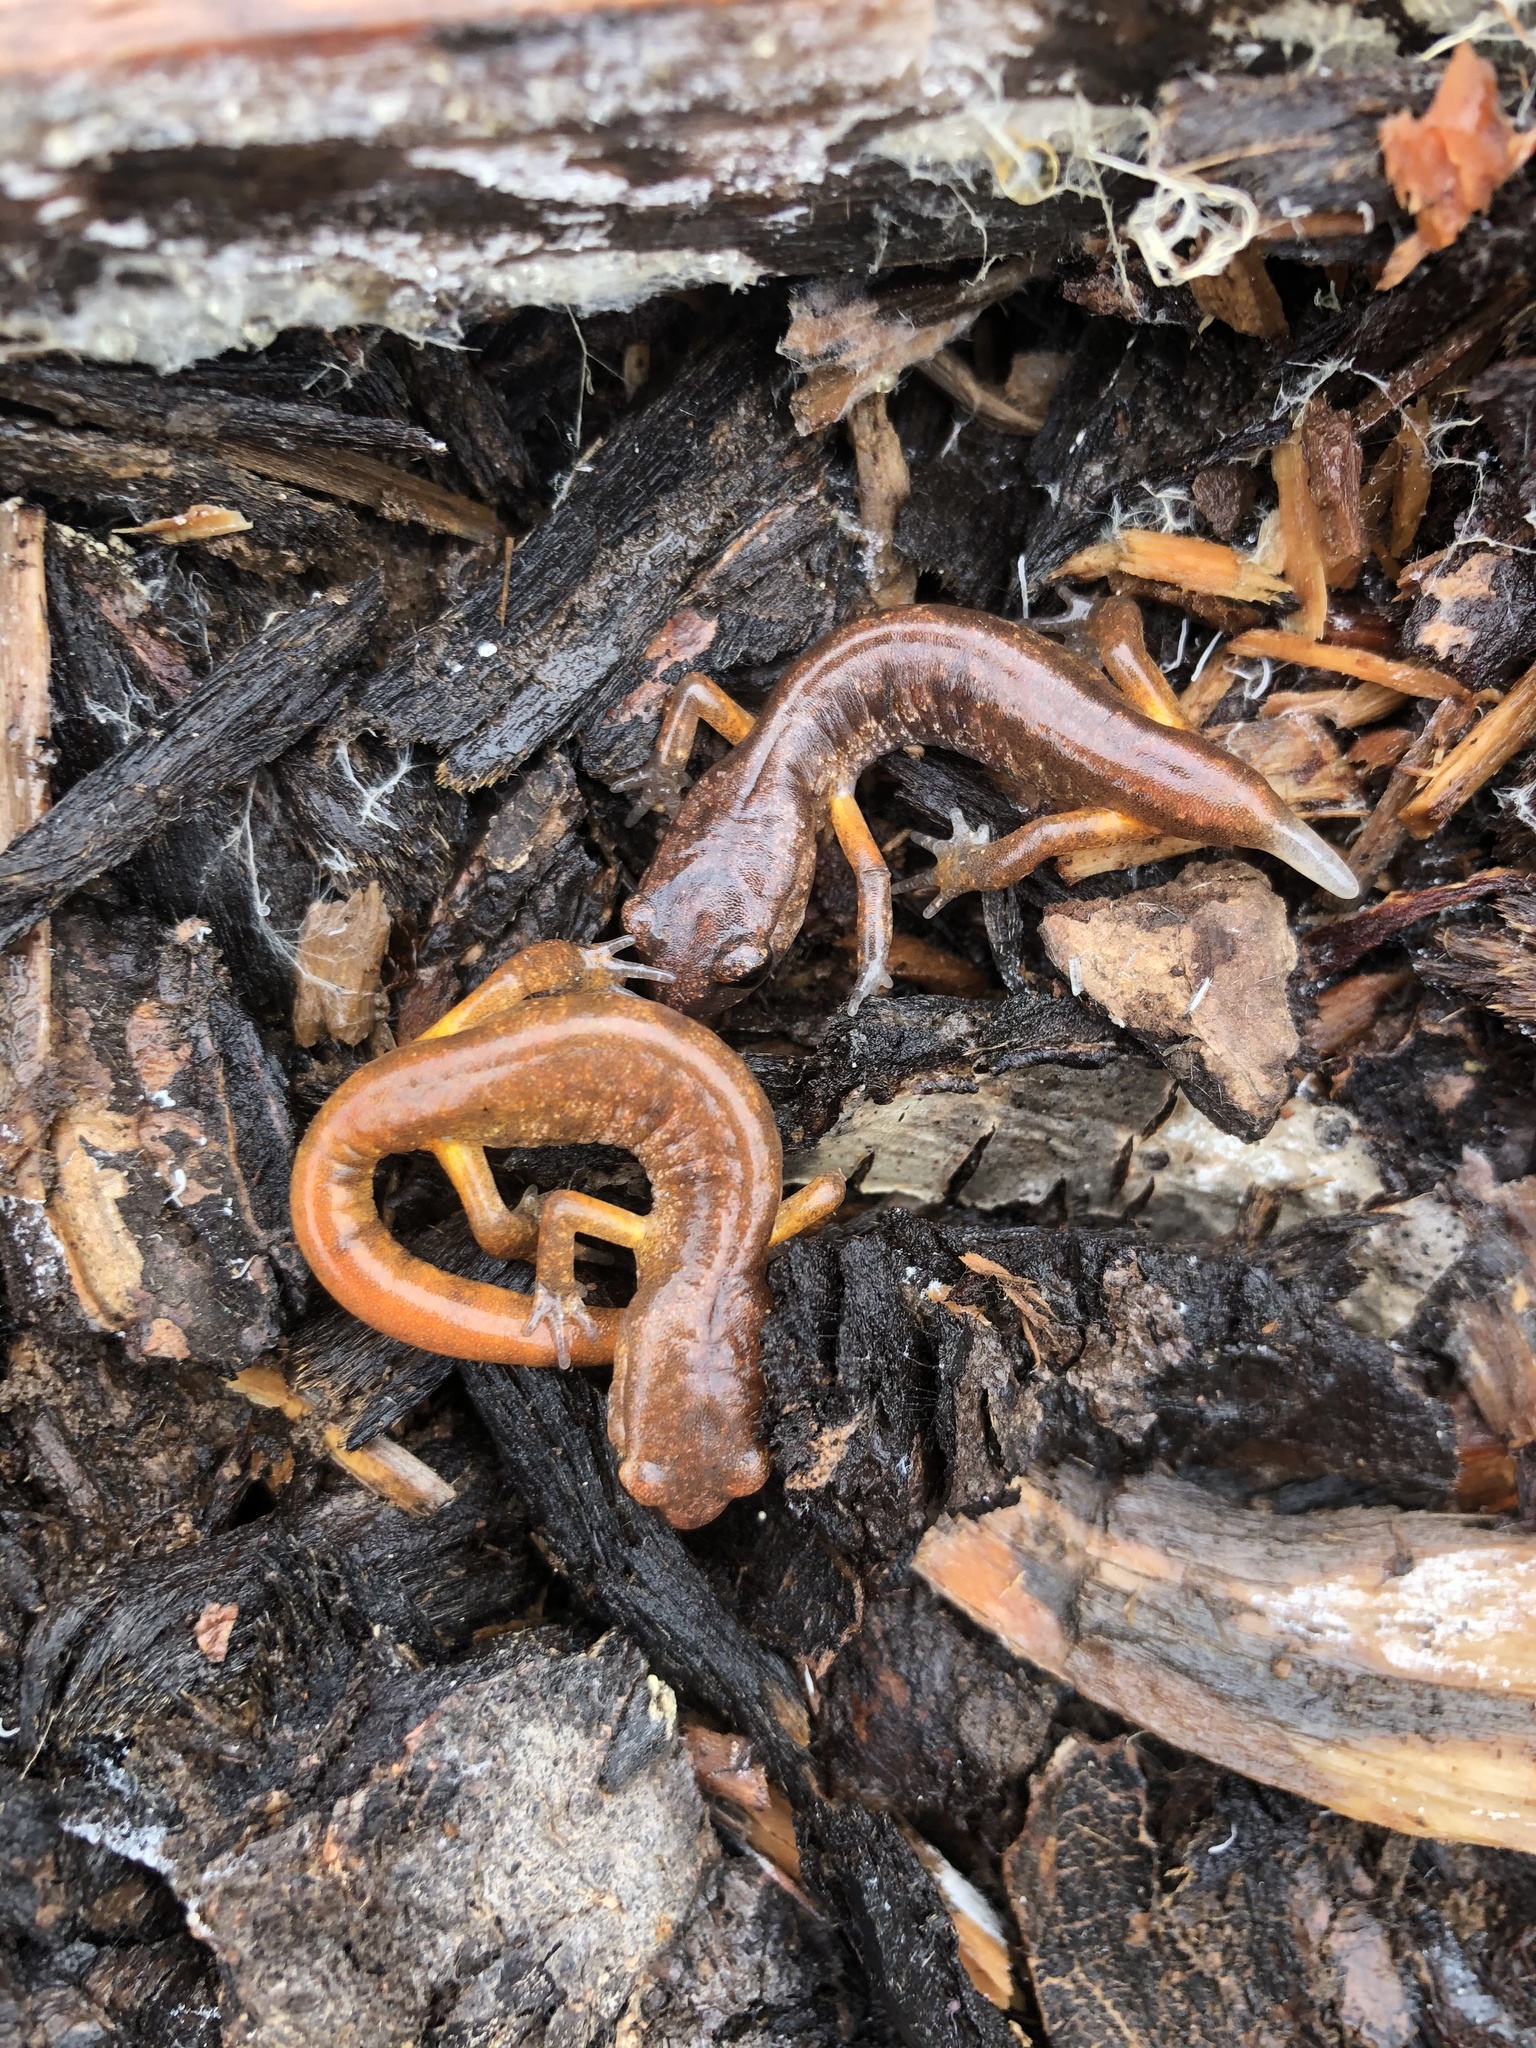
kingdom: Animalia
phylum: Chordata
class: Amphibia
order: Caudata
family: Plethodontidae
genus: Ensatina
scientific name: Ensatina eschscholtzii
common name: Ensatina
